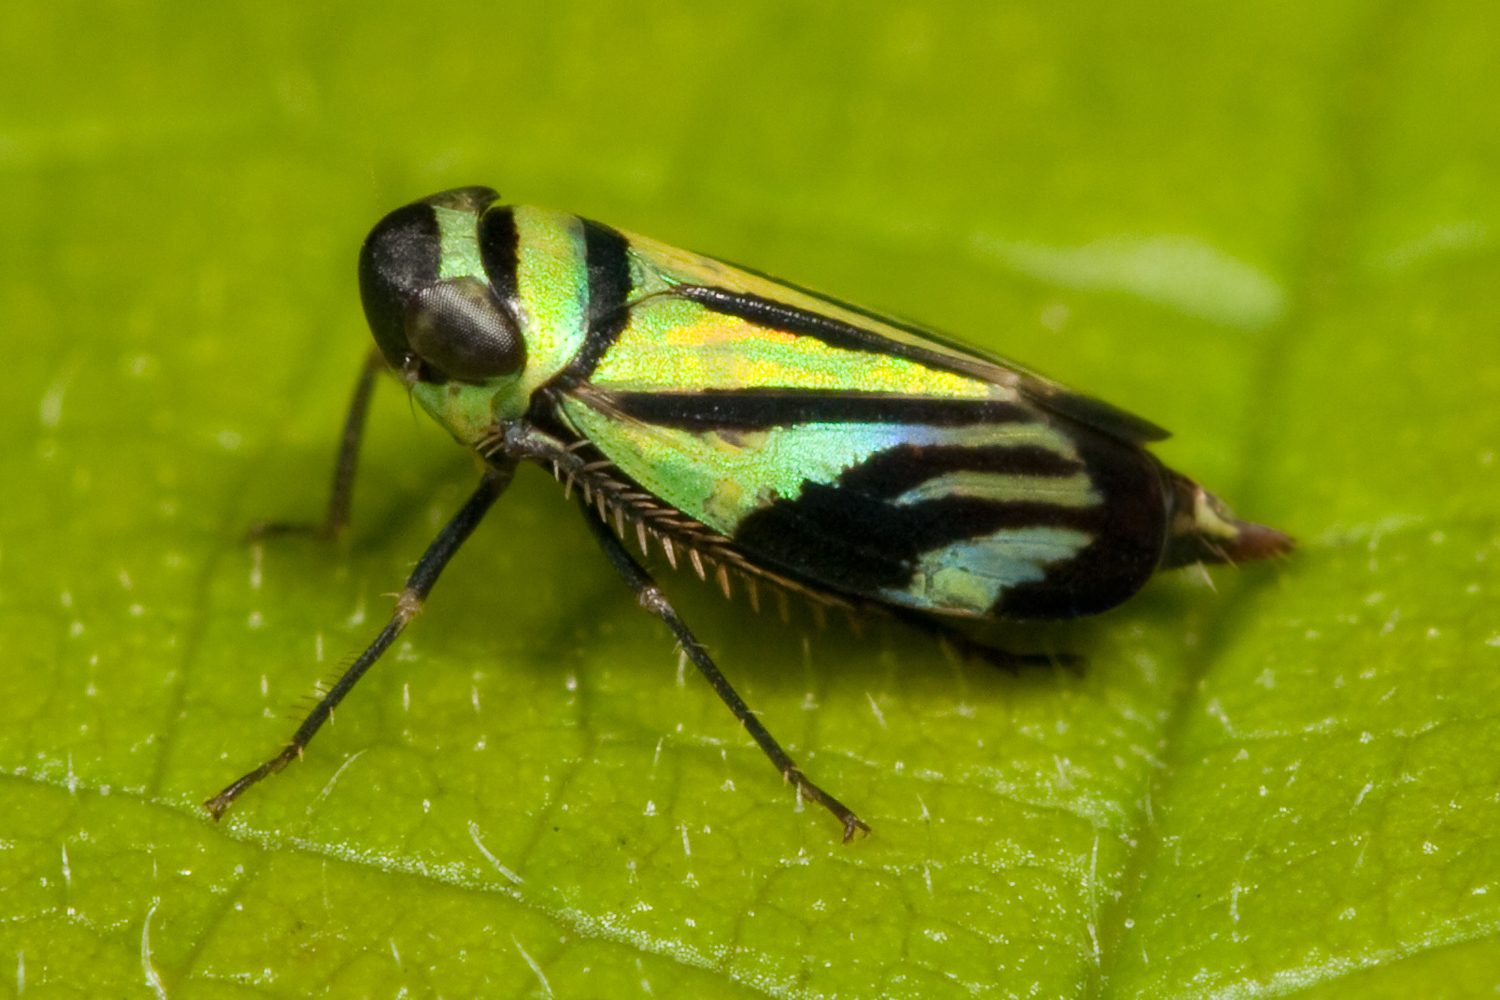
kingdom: Animalia
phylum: Arthropoda
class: Insecta
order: Hemiptera
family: Cicadellidae
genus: Stirellus
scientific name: Stirellus bicolor
